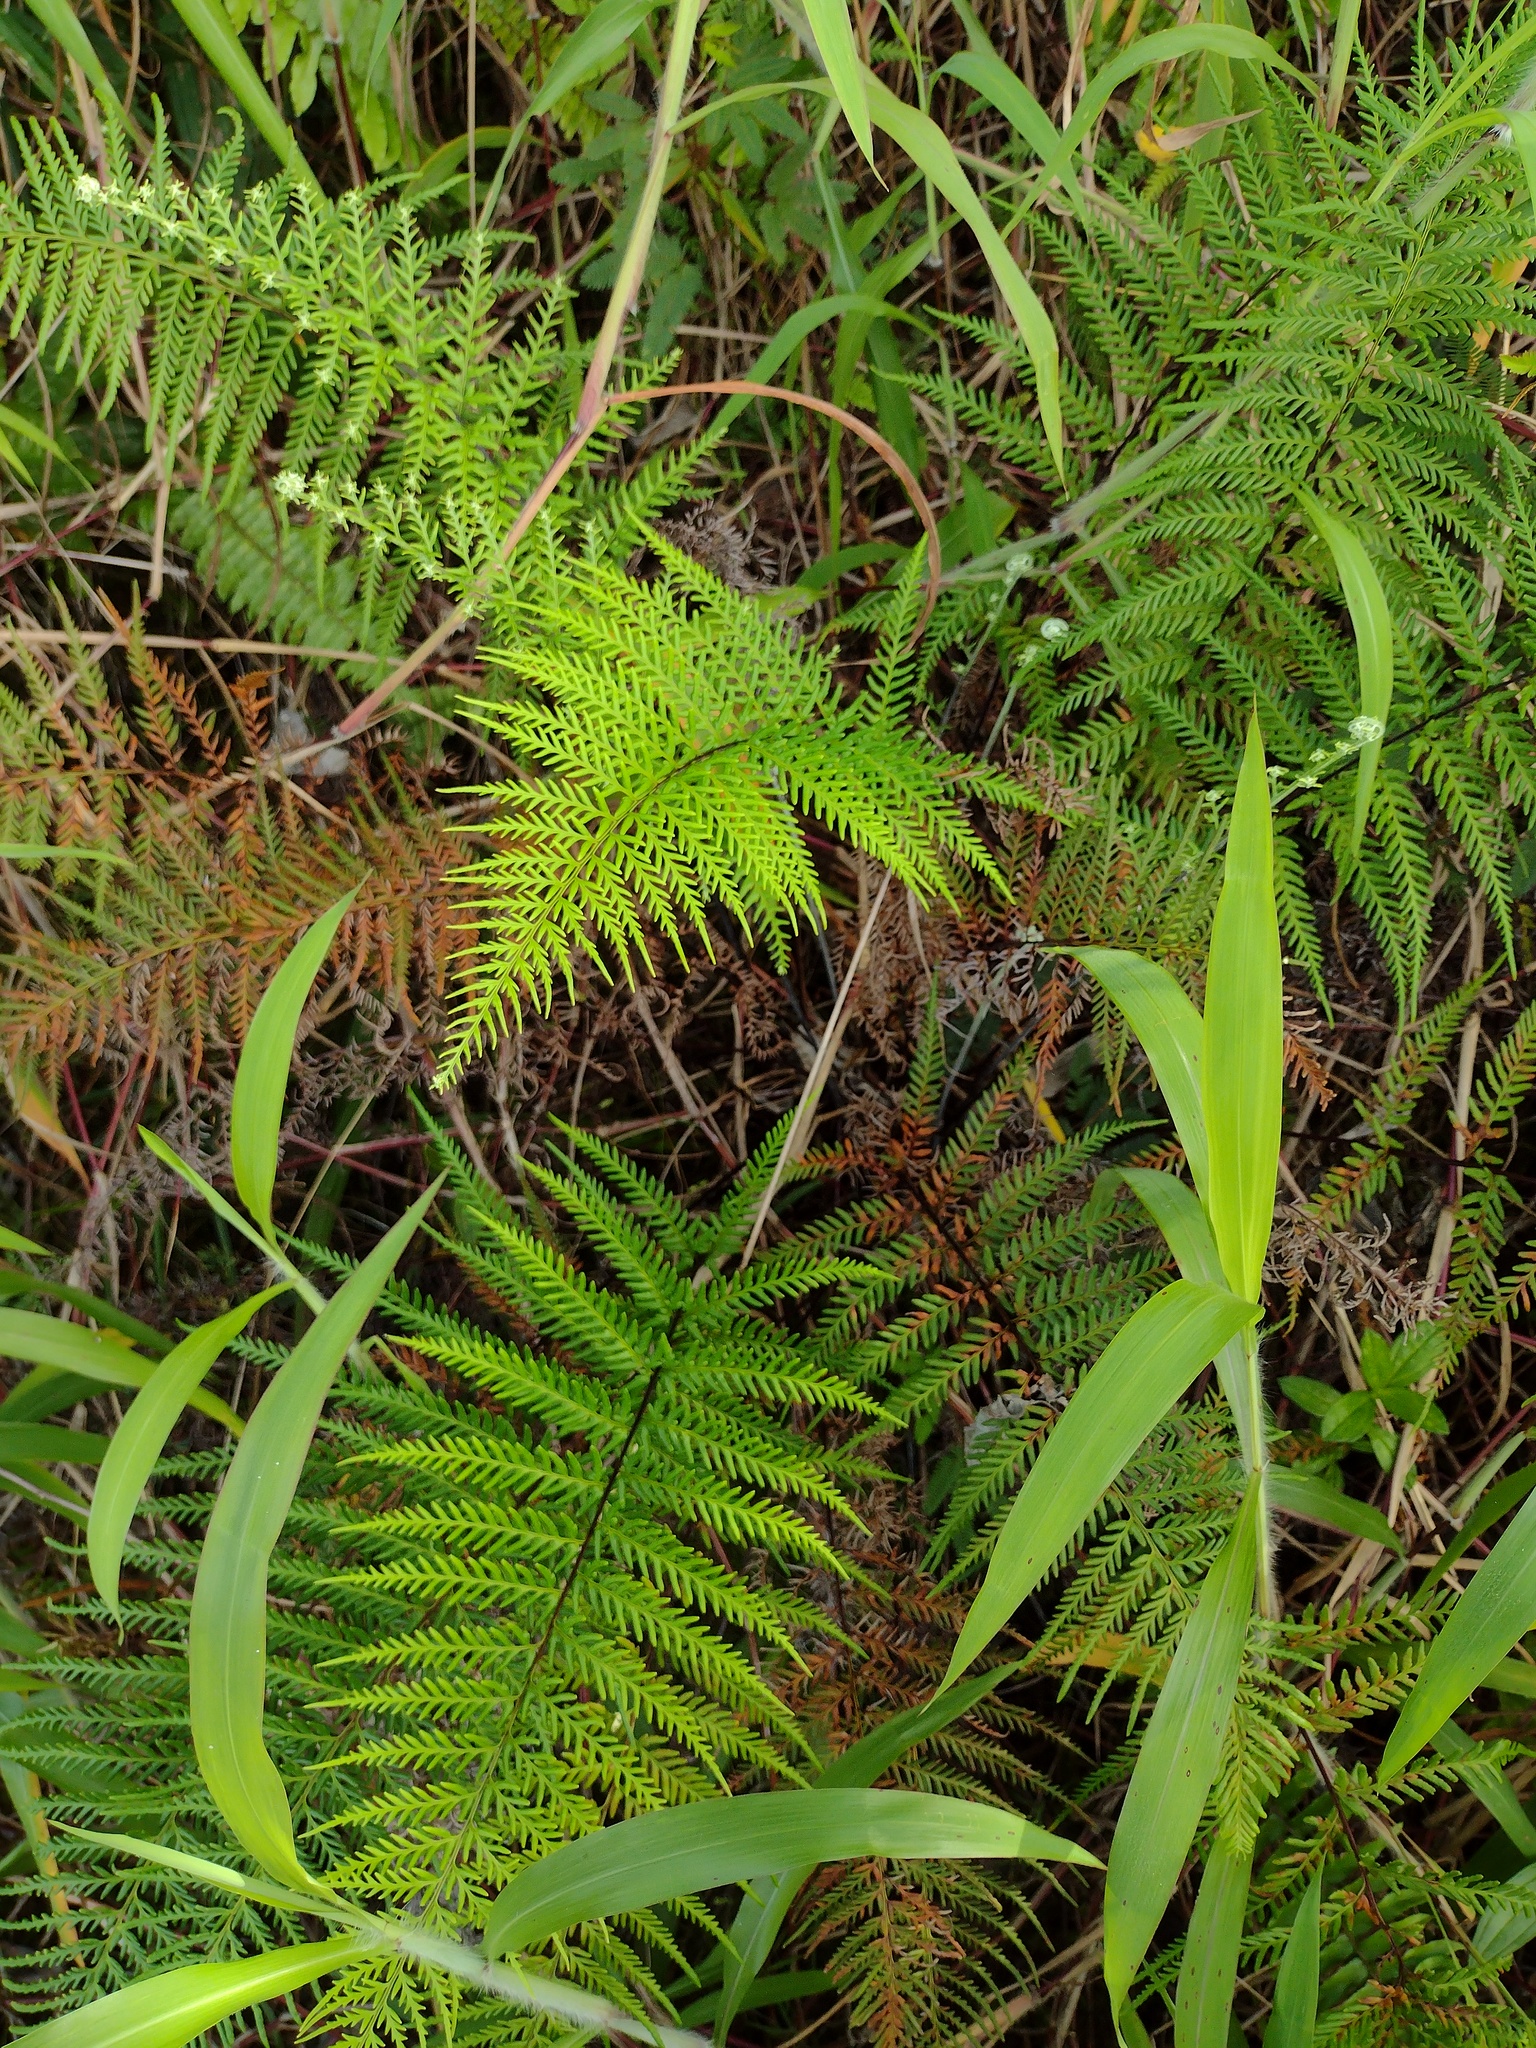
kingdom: Plantae
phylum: Tracheophyta
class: Polypodiopsida
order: Polypodiales
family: Pteridaceae
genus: Pityrogramma
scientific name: Pityrogramma calomelanos
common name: Dixie silverback fern
